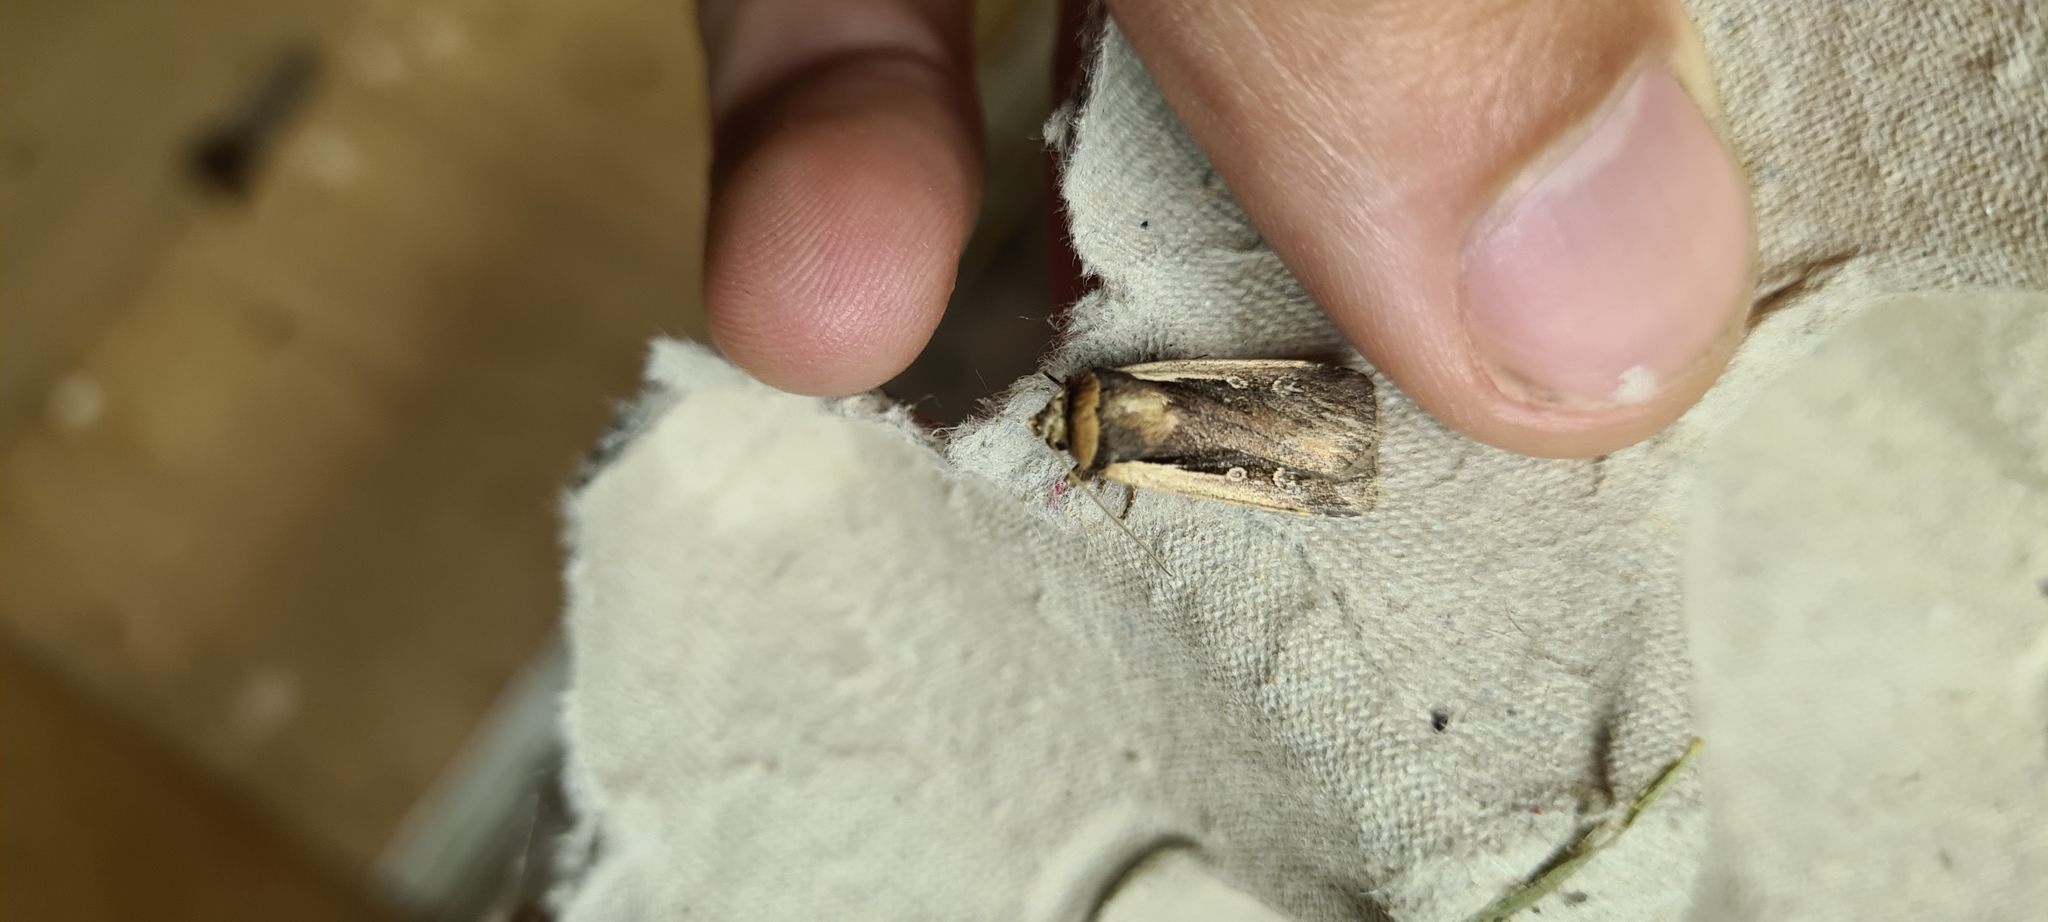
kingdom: Animalia
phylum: Arthropoda
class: Insecta
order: Lepidoptera
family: Noctuidae
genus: Ochropleura
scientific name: Ochropleura plecta
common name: Flame shoulder
